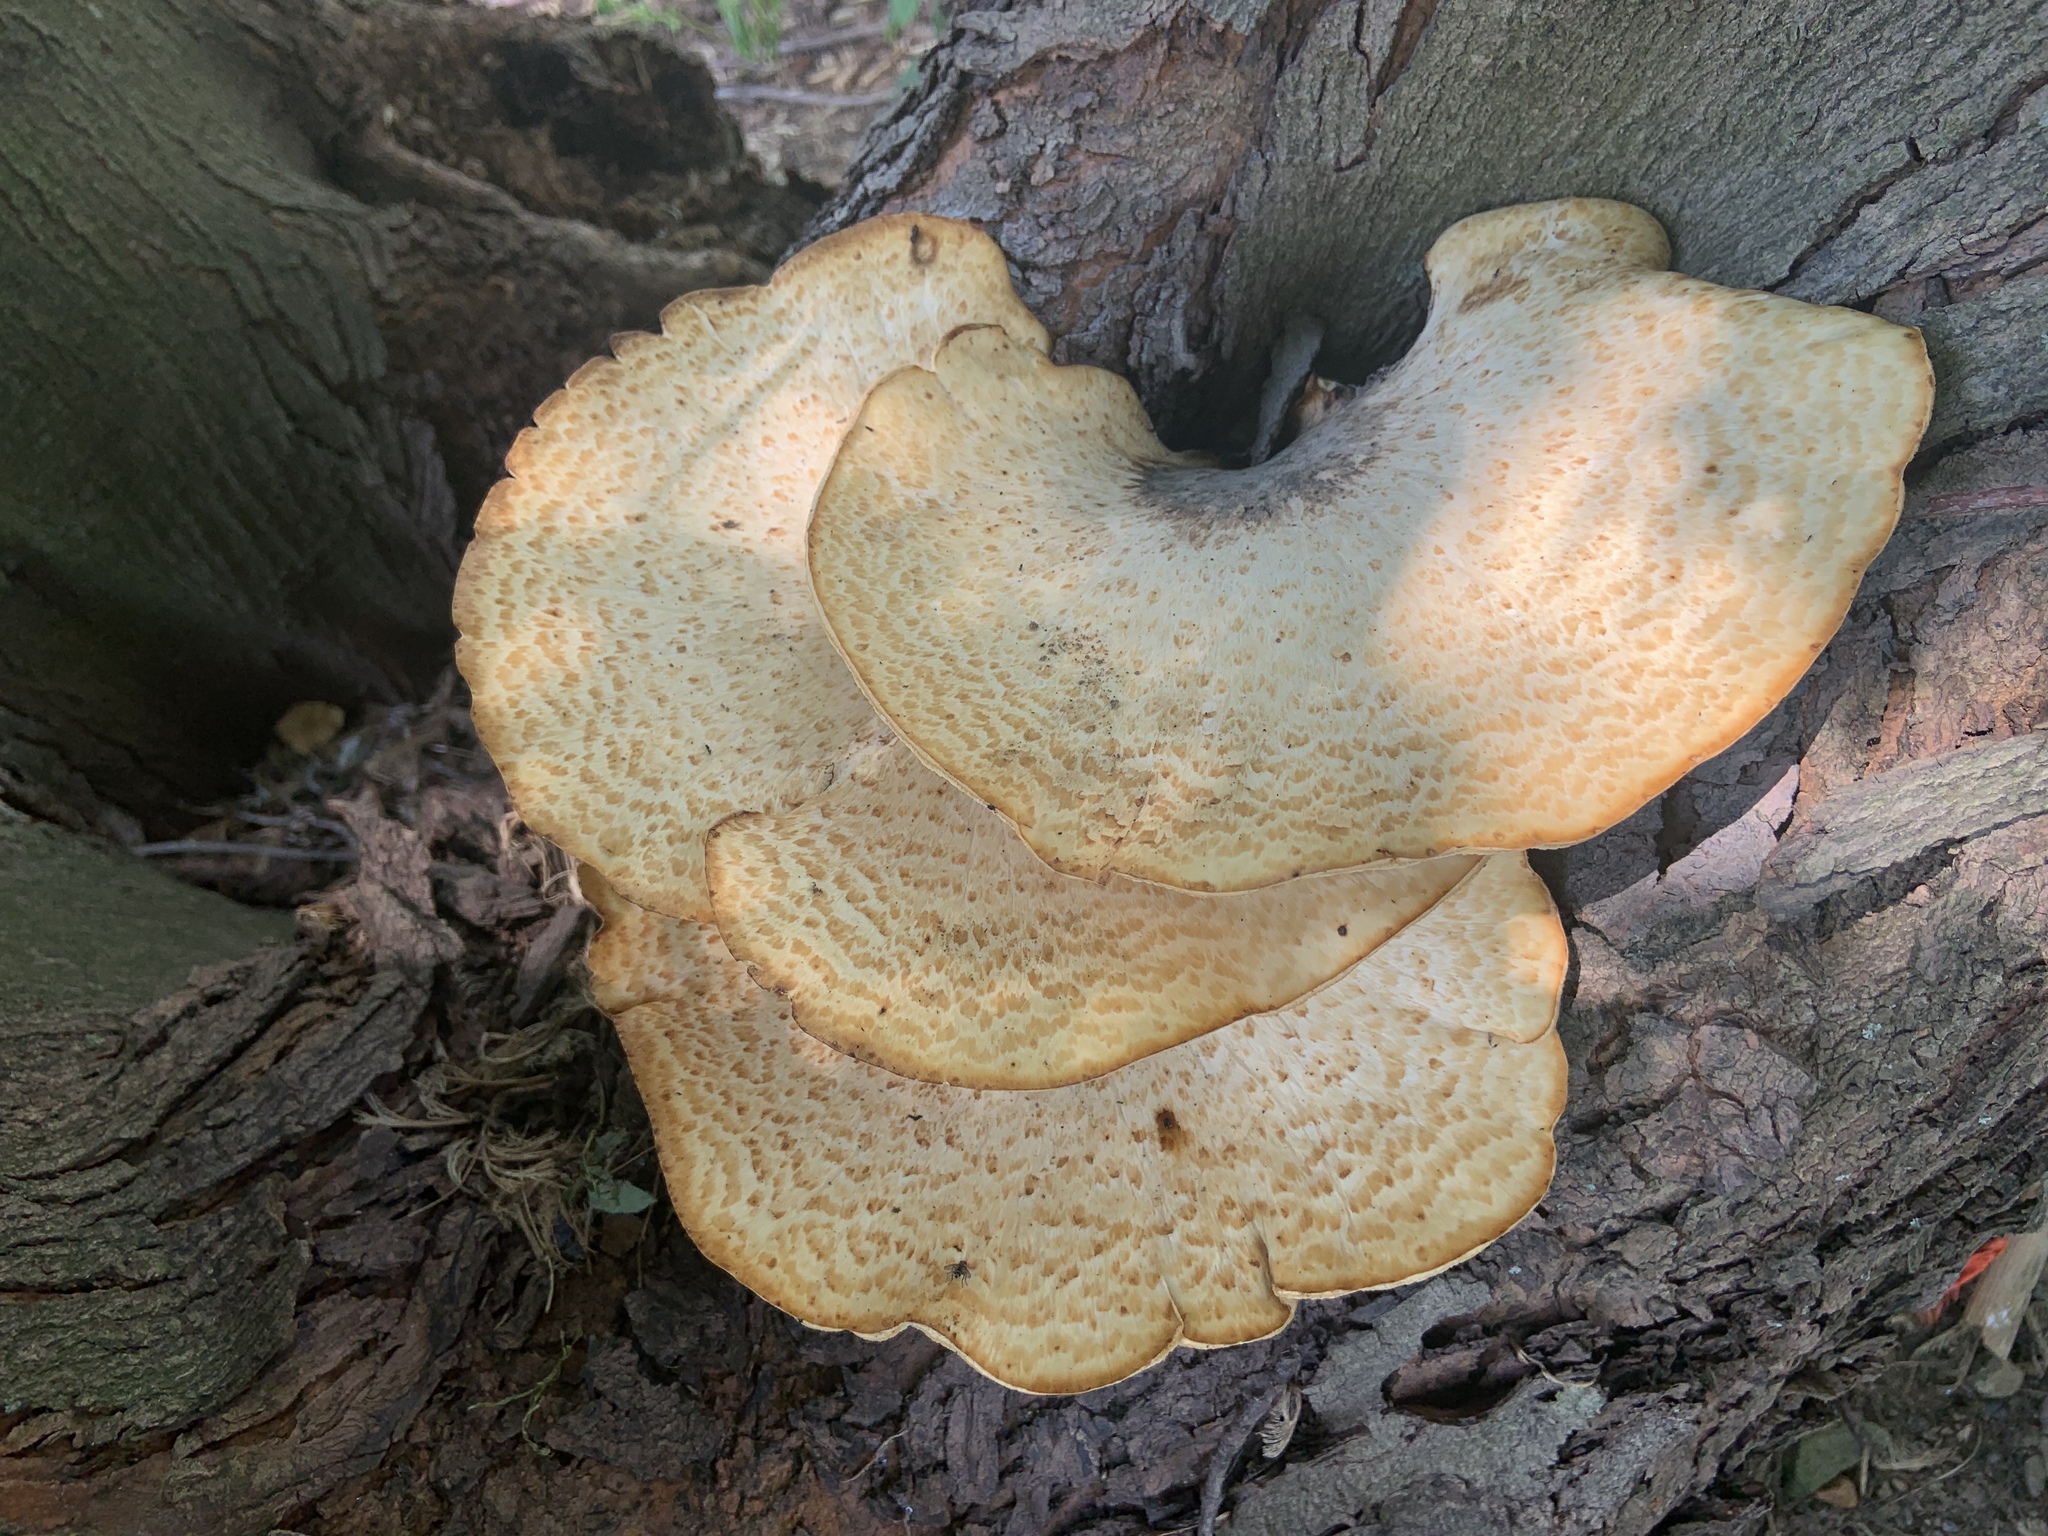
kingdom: Fungi
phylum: Basidiomycota
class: Agaricomycetes
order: Polyporales
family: Polyporaceae
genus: Cerioporus
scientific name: Cerioporus squamosus
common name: Dryad's saddle
